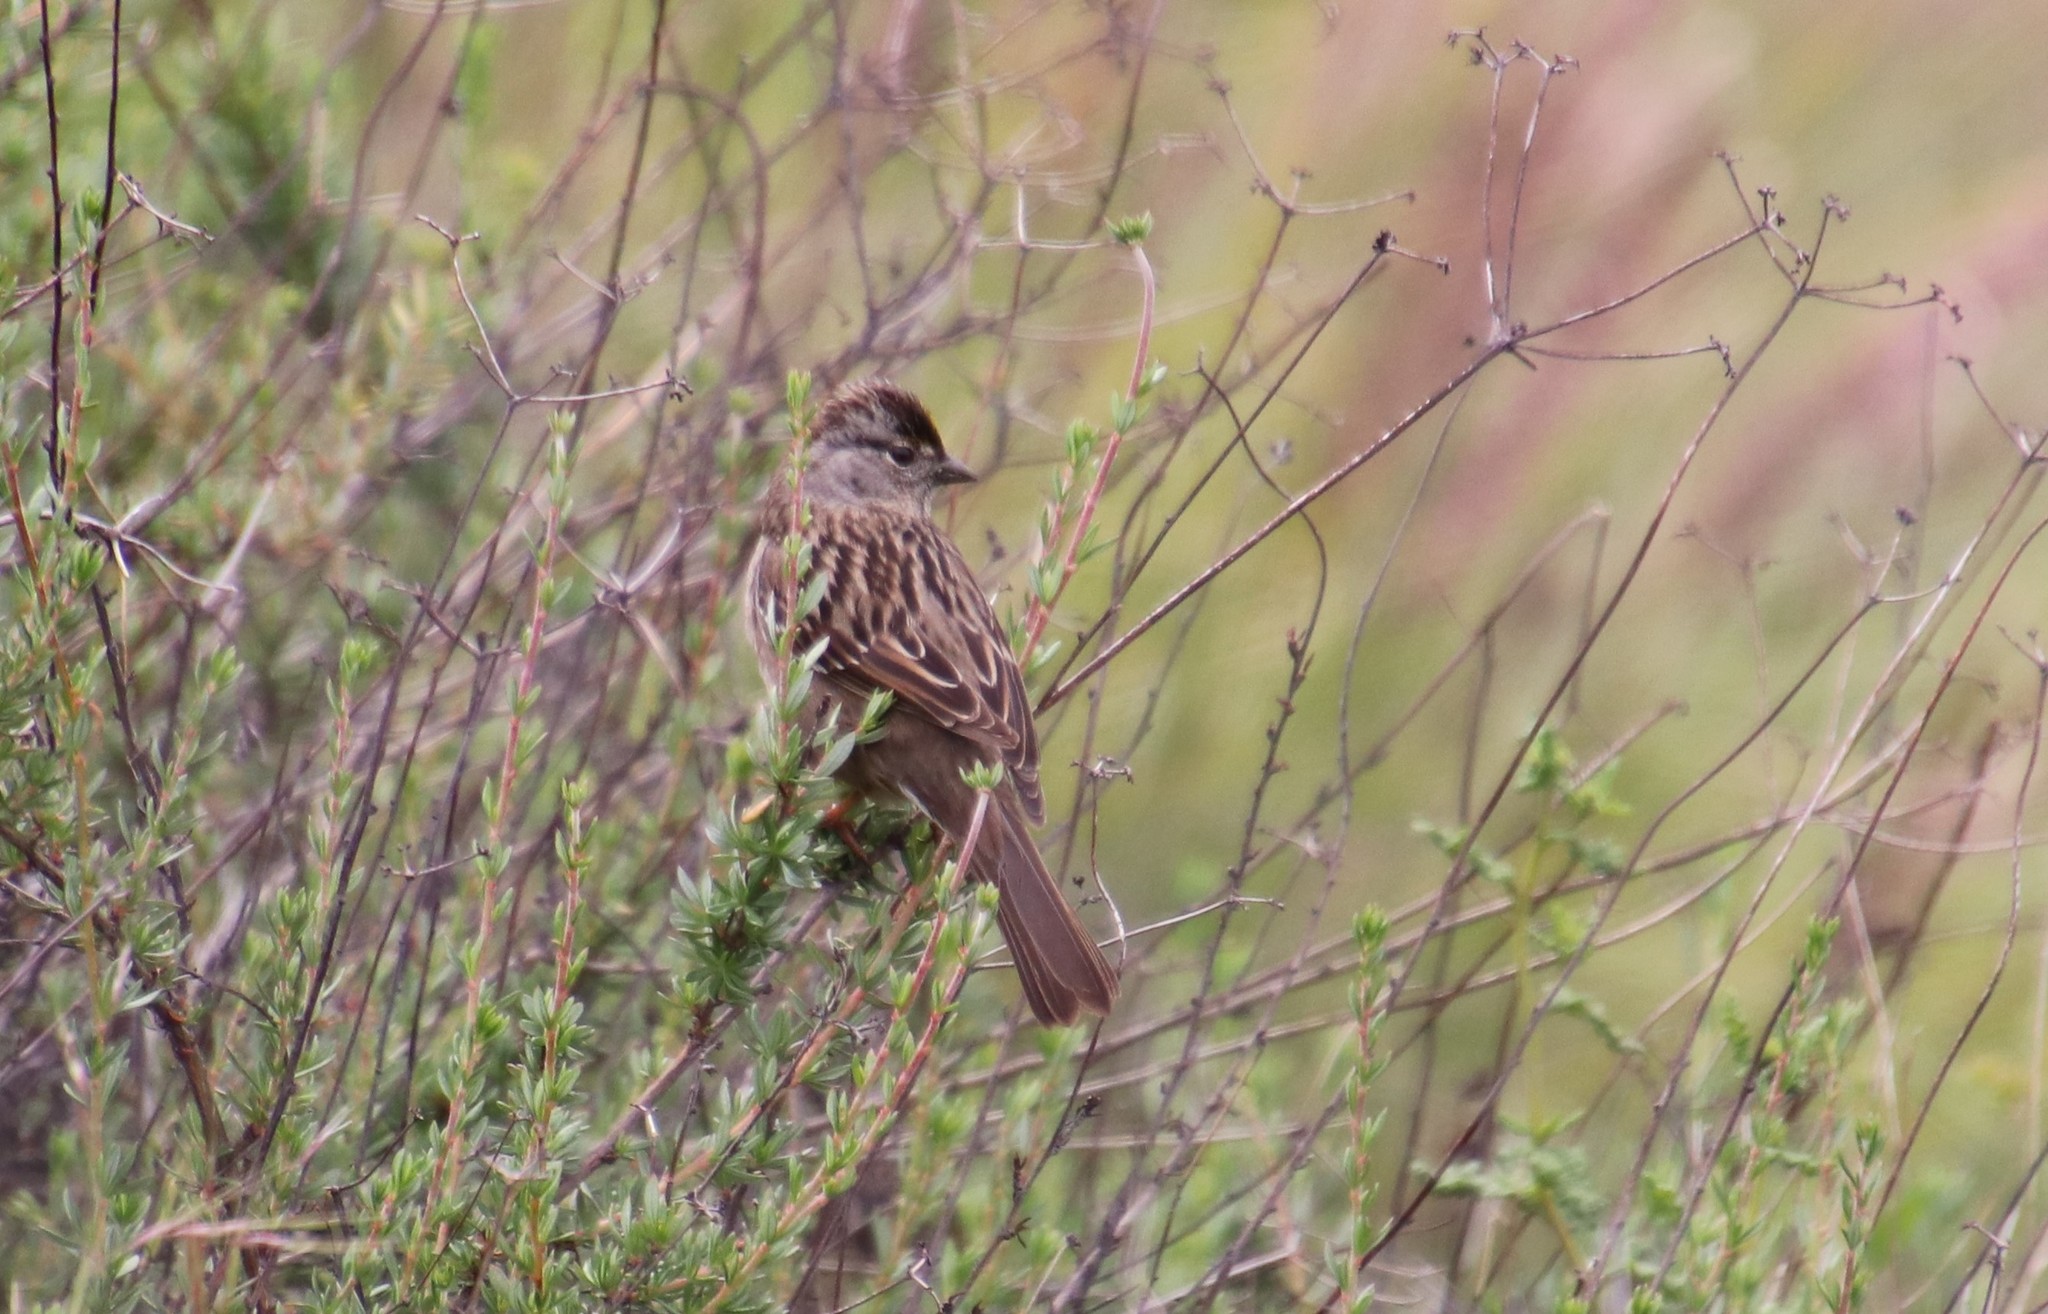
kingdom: Animalia
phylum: Chordata
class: Aves
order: Passeriformes
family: Passerellidae
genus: Zonotrichia
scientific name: Zonotrichia atricapilla
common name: Golden-crowned sparrow
